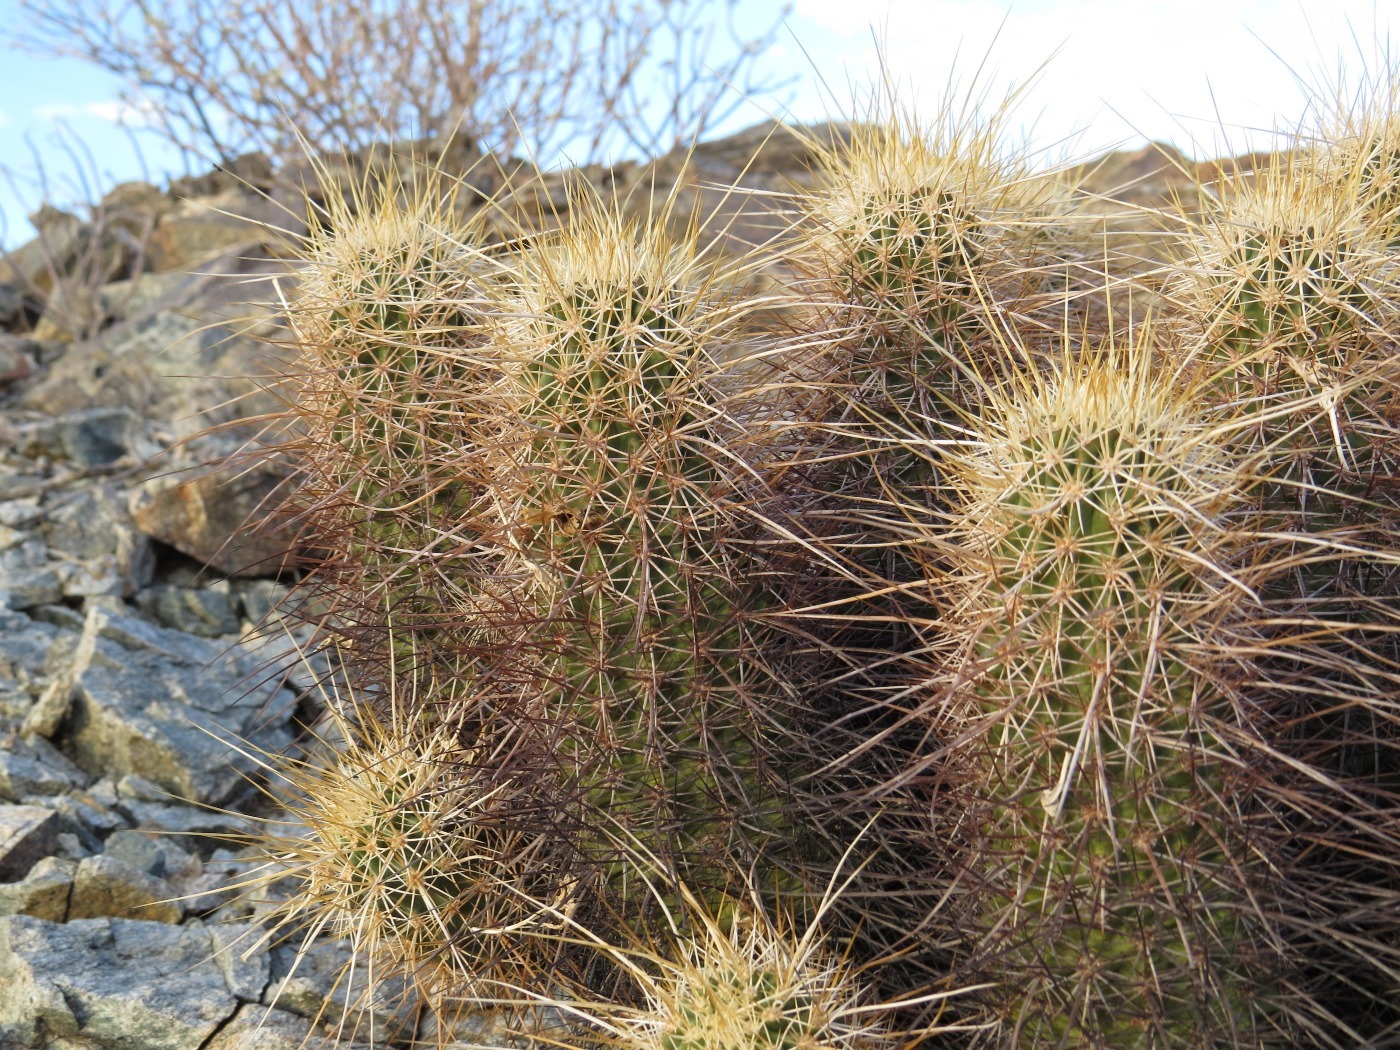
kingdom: Plantae
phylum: Tracheophyta
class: Magnoliopsida
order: Caryophyllales
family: Cactaceae
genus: Echinocereus
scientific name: Echinocereus engelmannii
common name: Engelmann's hedgehog cactus
